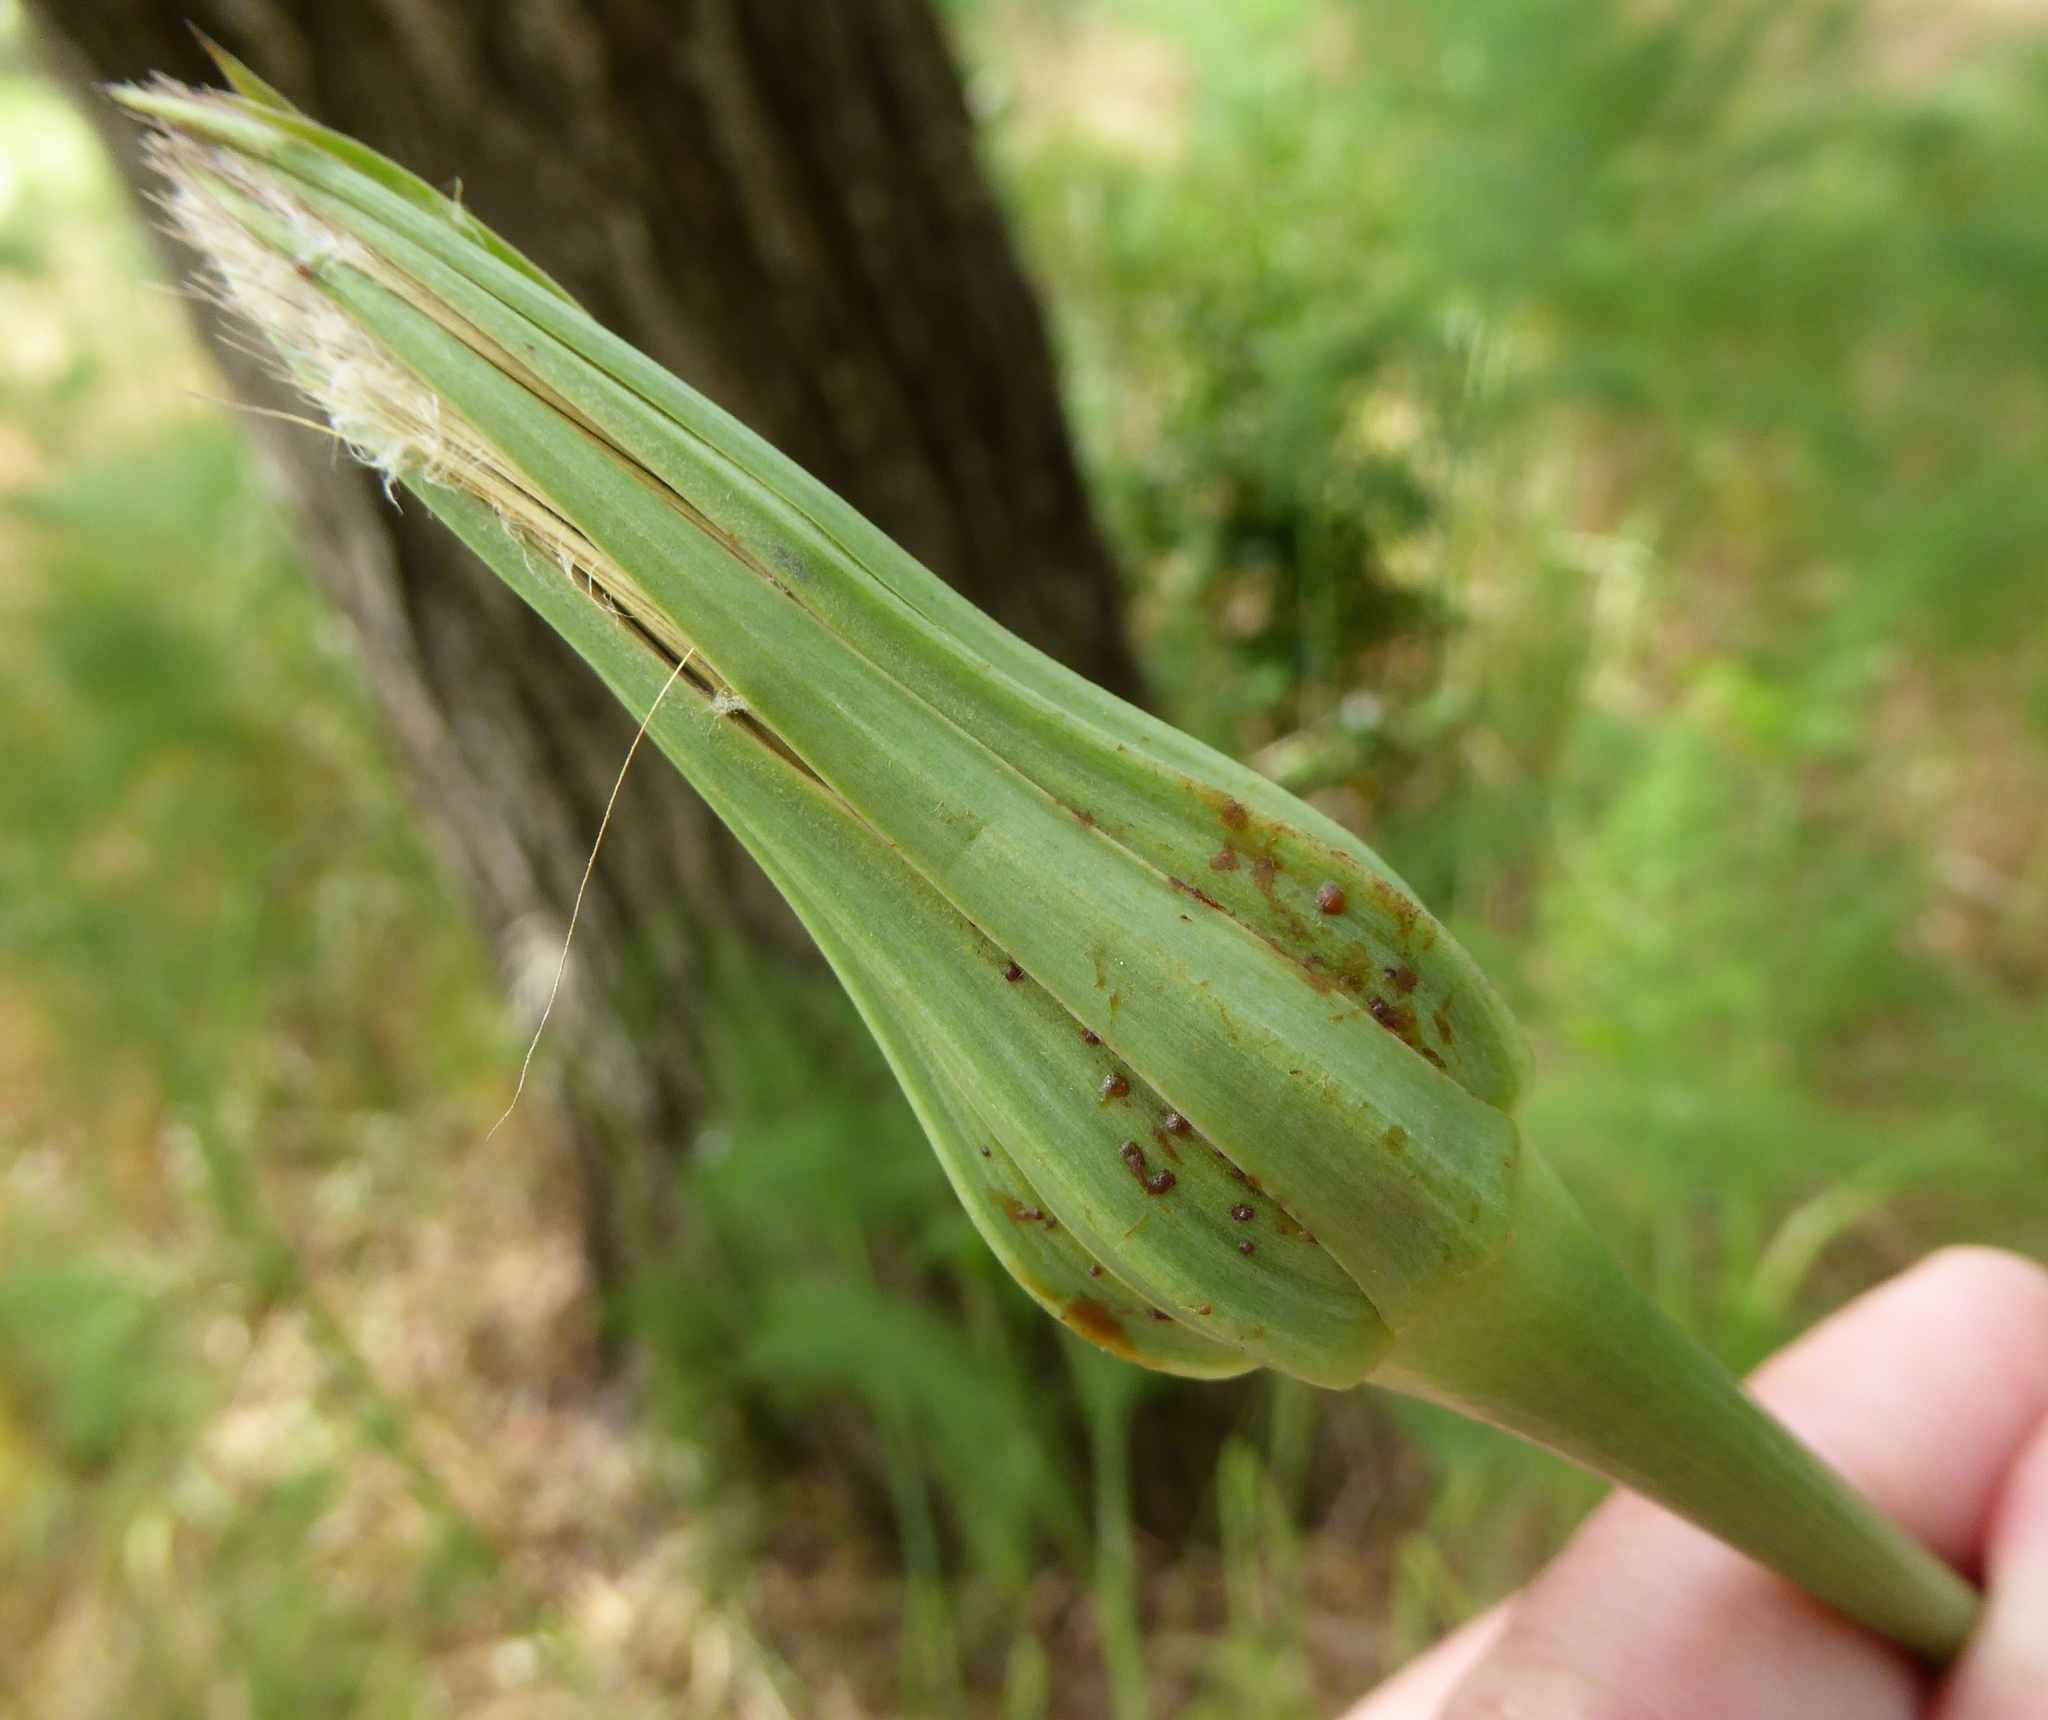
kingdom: Plantae
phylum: Tracheophyta
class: Magnoliopsida
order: Asterales
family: Asteraceae
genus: Tragopogon
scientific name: Tragopogon porrifolius
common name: Salsify
